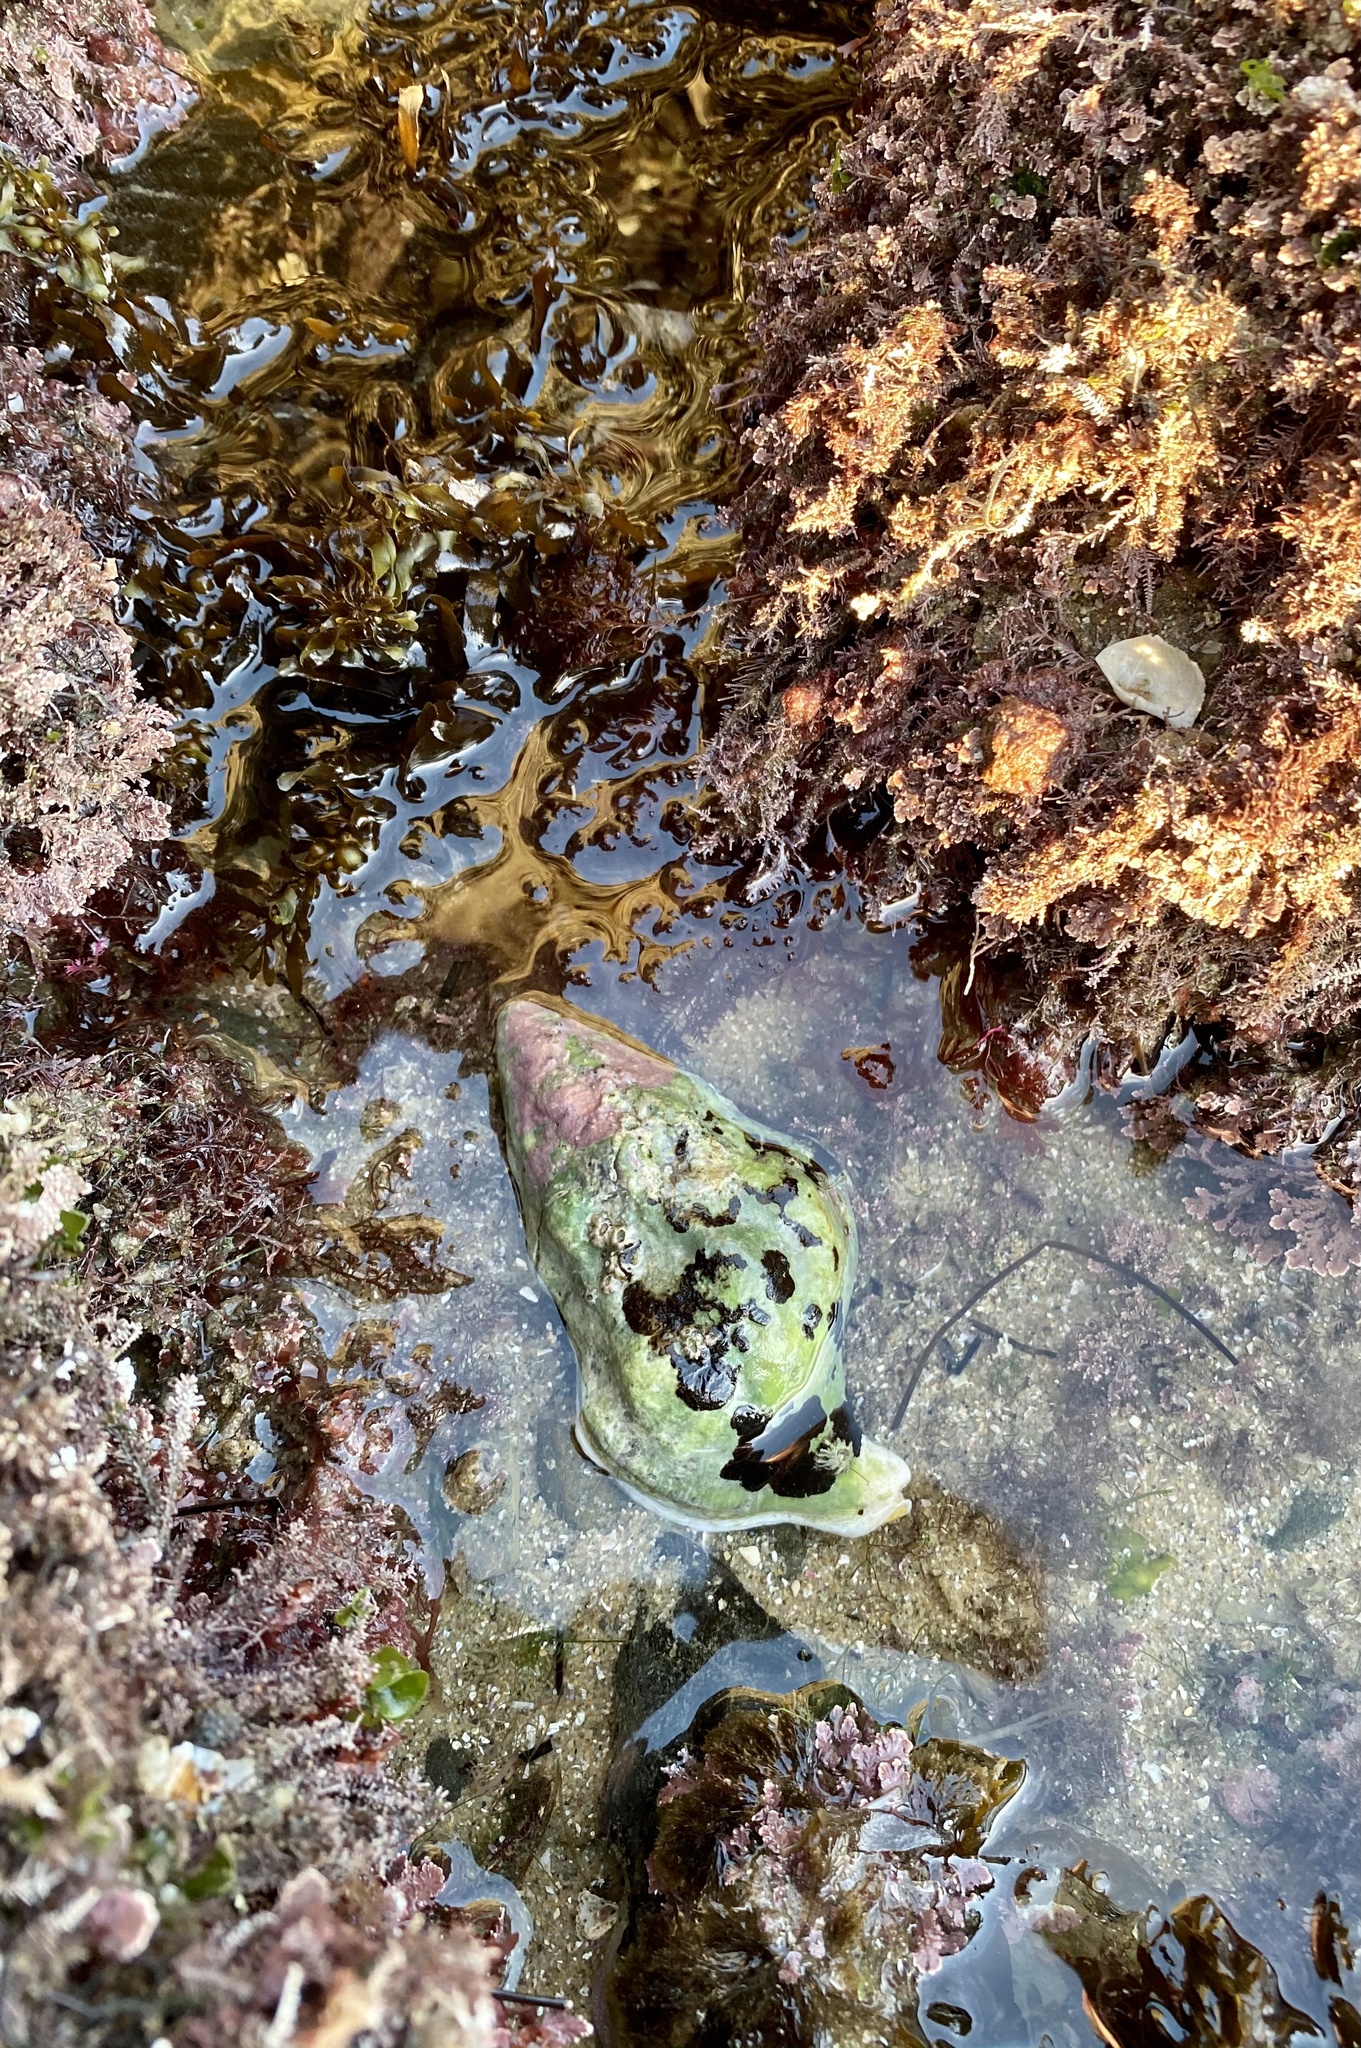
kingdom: Animalia
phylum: Mollusca
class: Gastropoda
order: Neogastropoda
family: Austrosiphonidae
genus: Kelletia
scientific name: Kelletia kelletii
